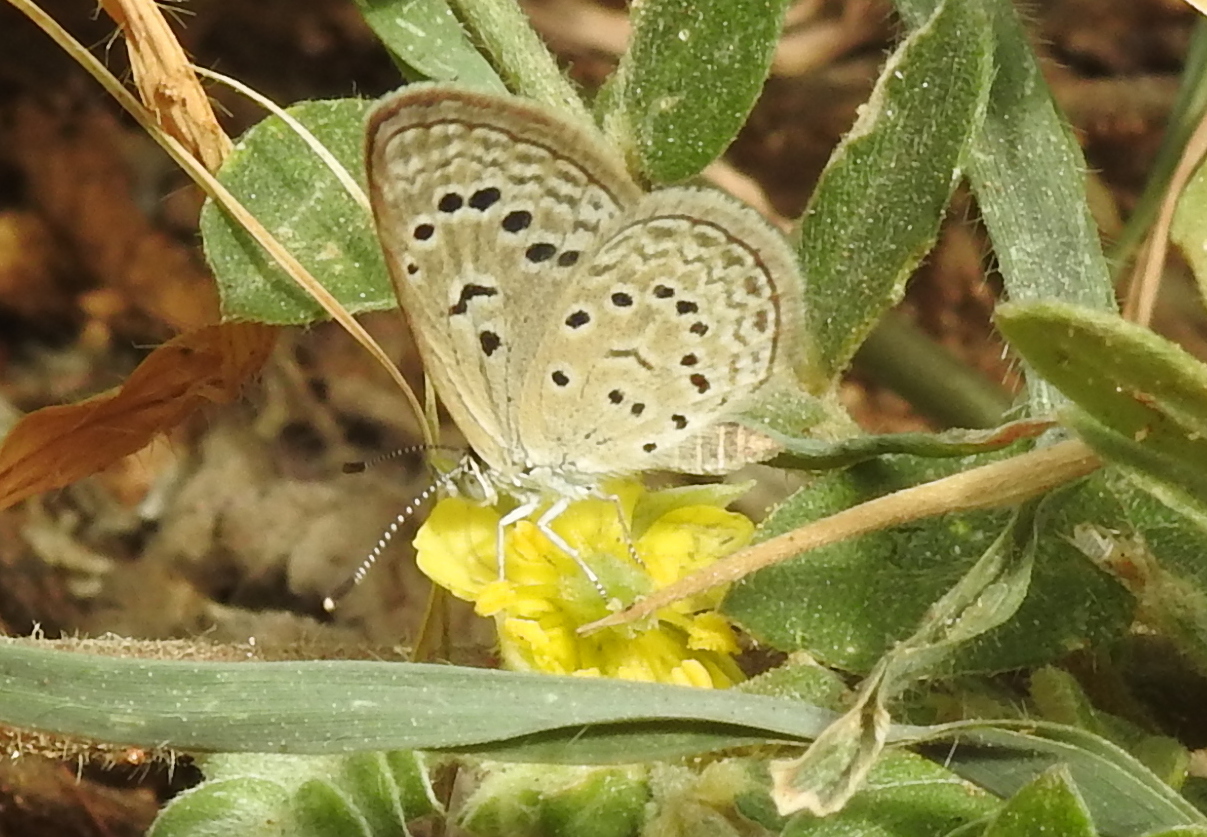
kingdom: Animalia
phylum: Arthropoda
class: Insecta
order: Lepidoptera
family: Lycaenidae
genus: Zizeeria
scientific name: Zizeeria karsandra
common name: Dark grass blue
